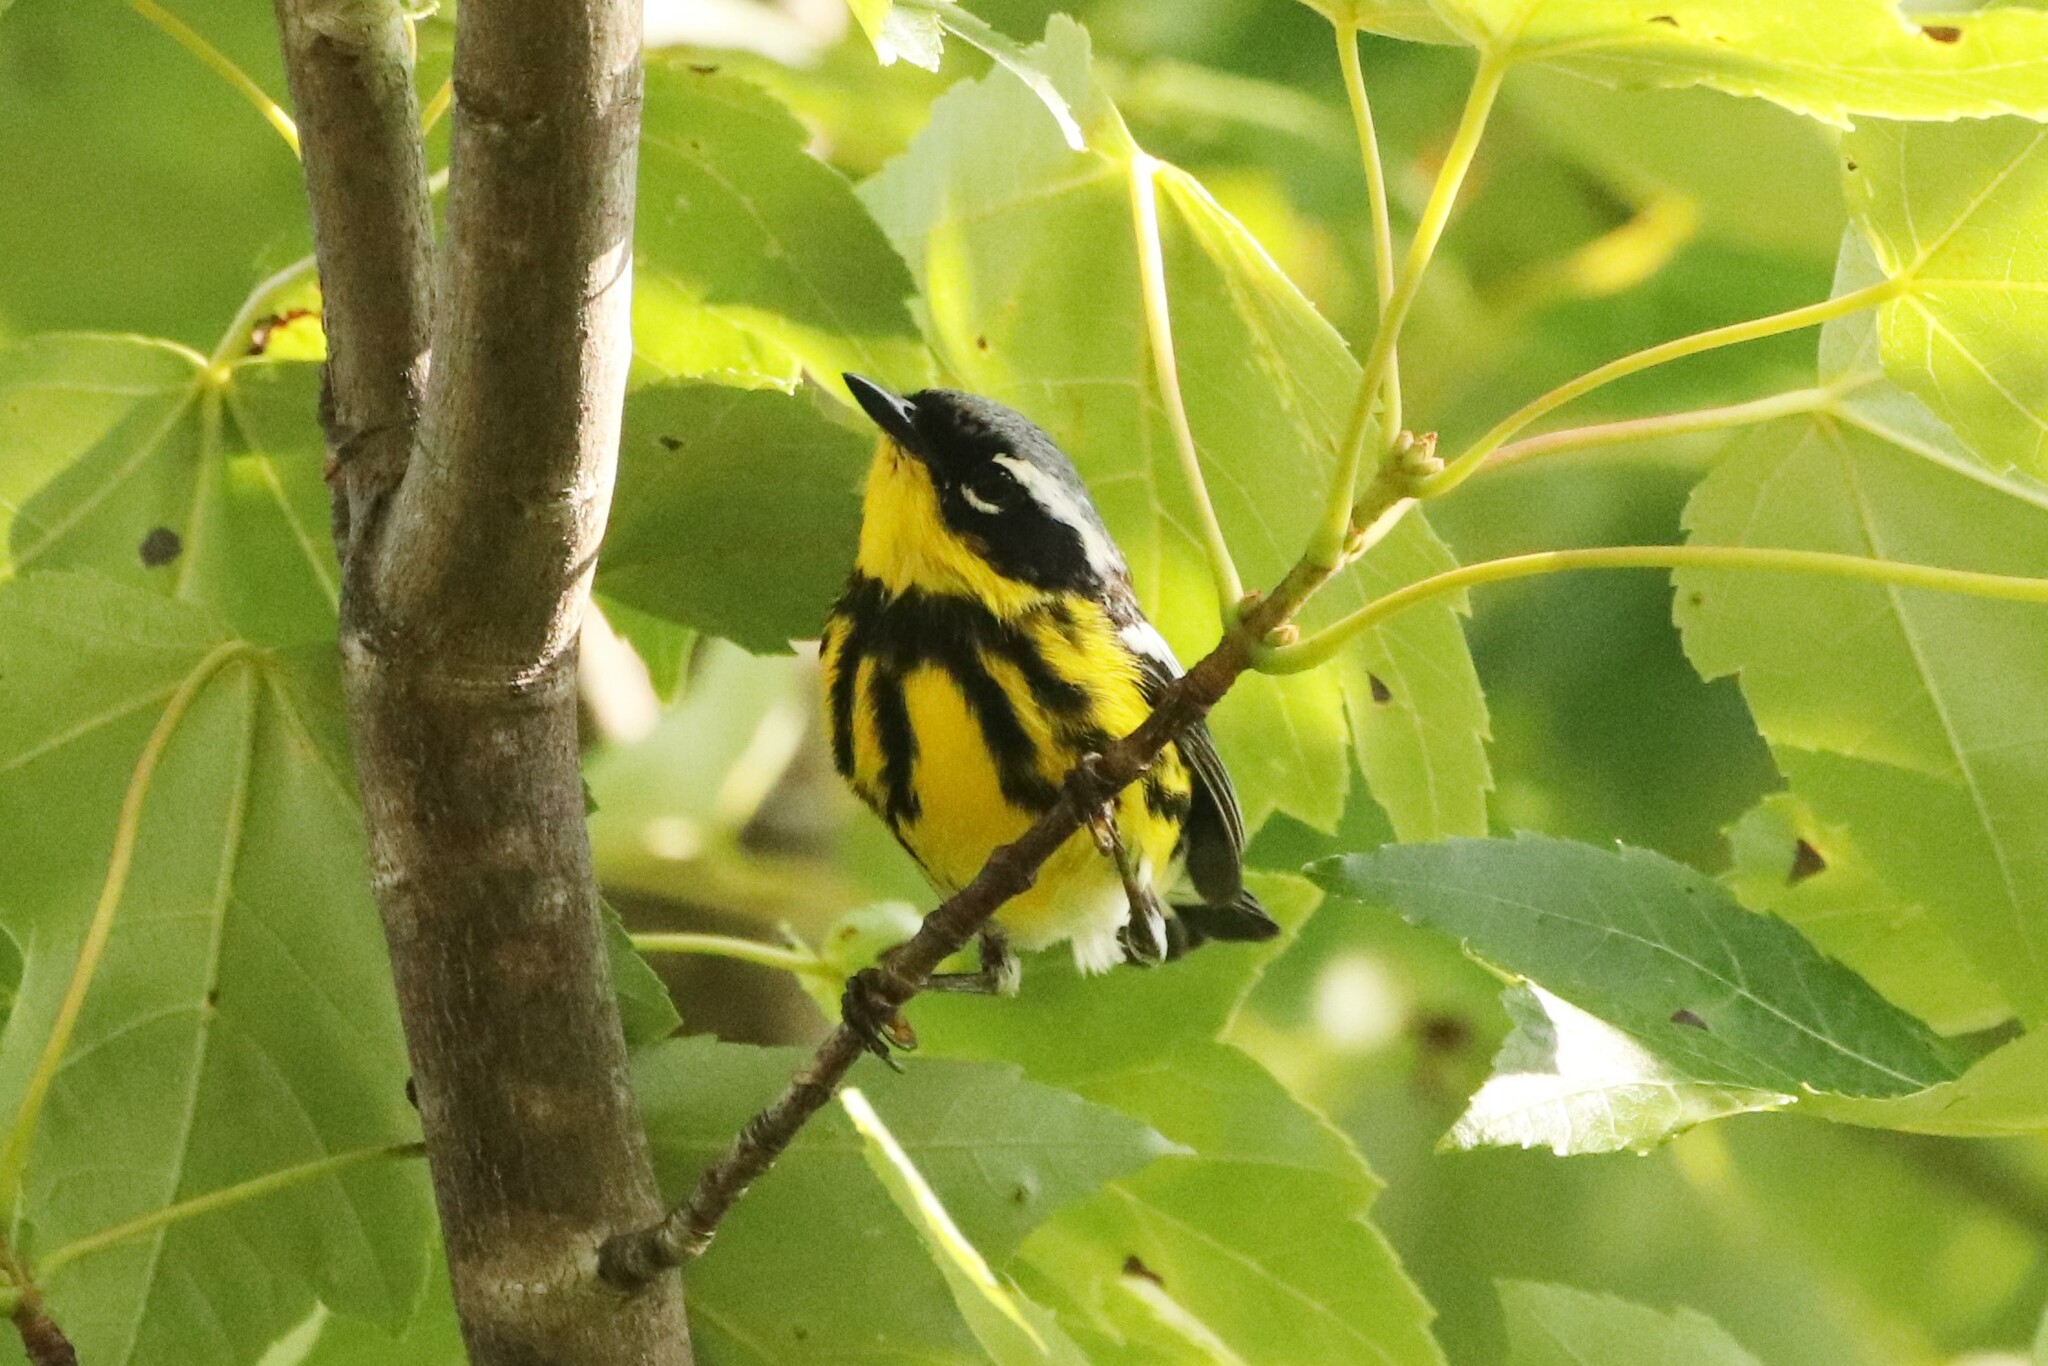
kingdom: Animalia
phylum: Chordata
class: Aves
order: Passeriformes
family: Parulidae
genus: Setophaga
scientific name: Setophaga magnolia
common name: Magnolia warbler
